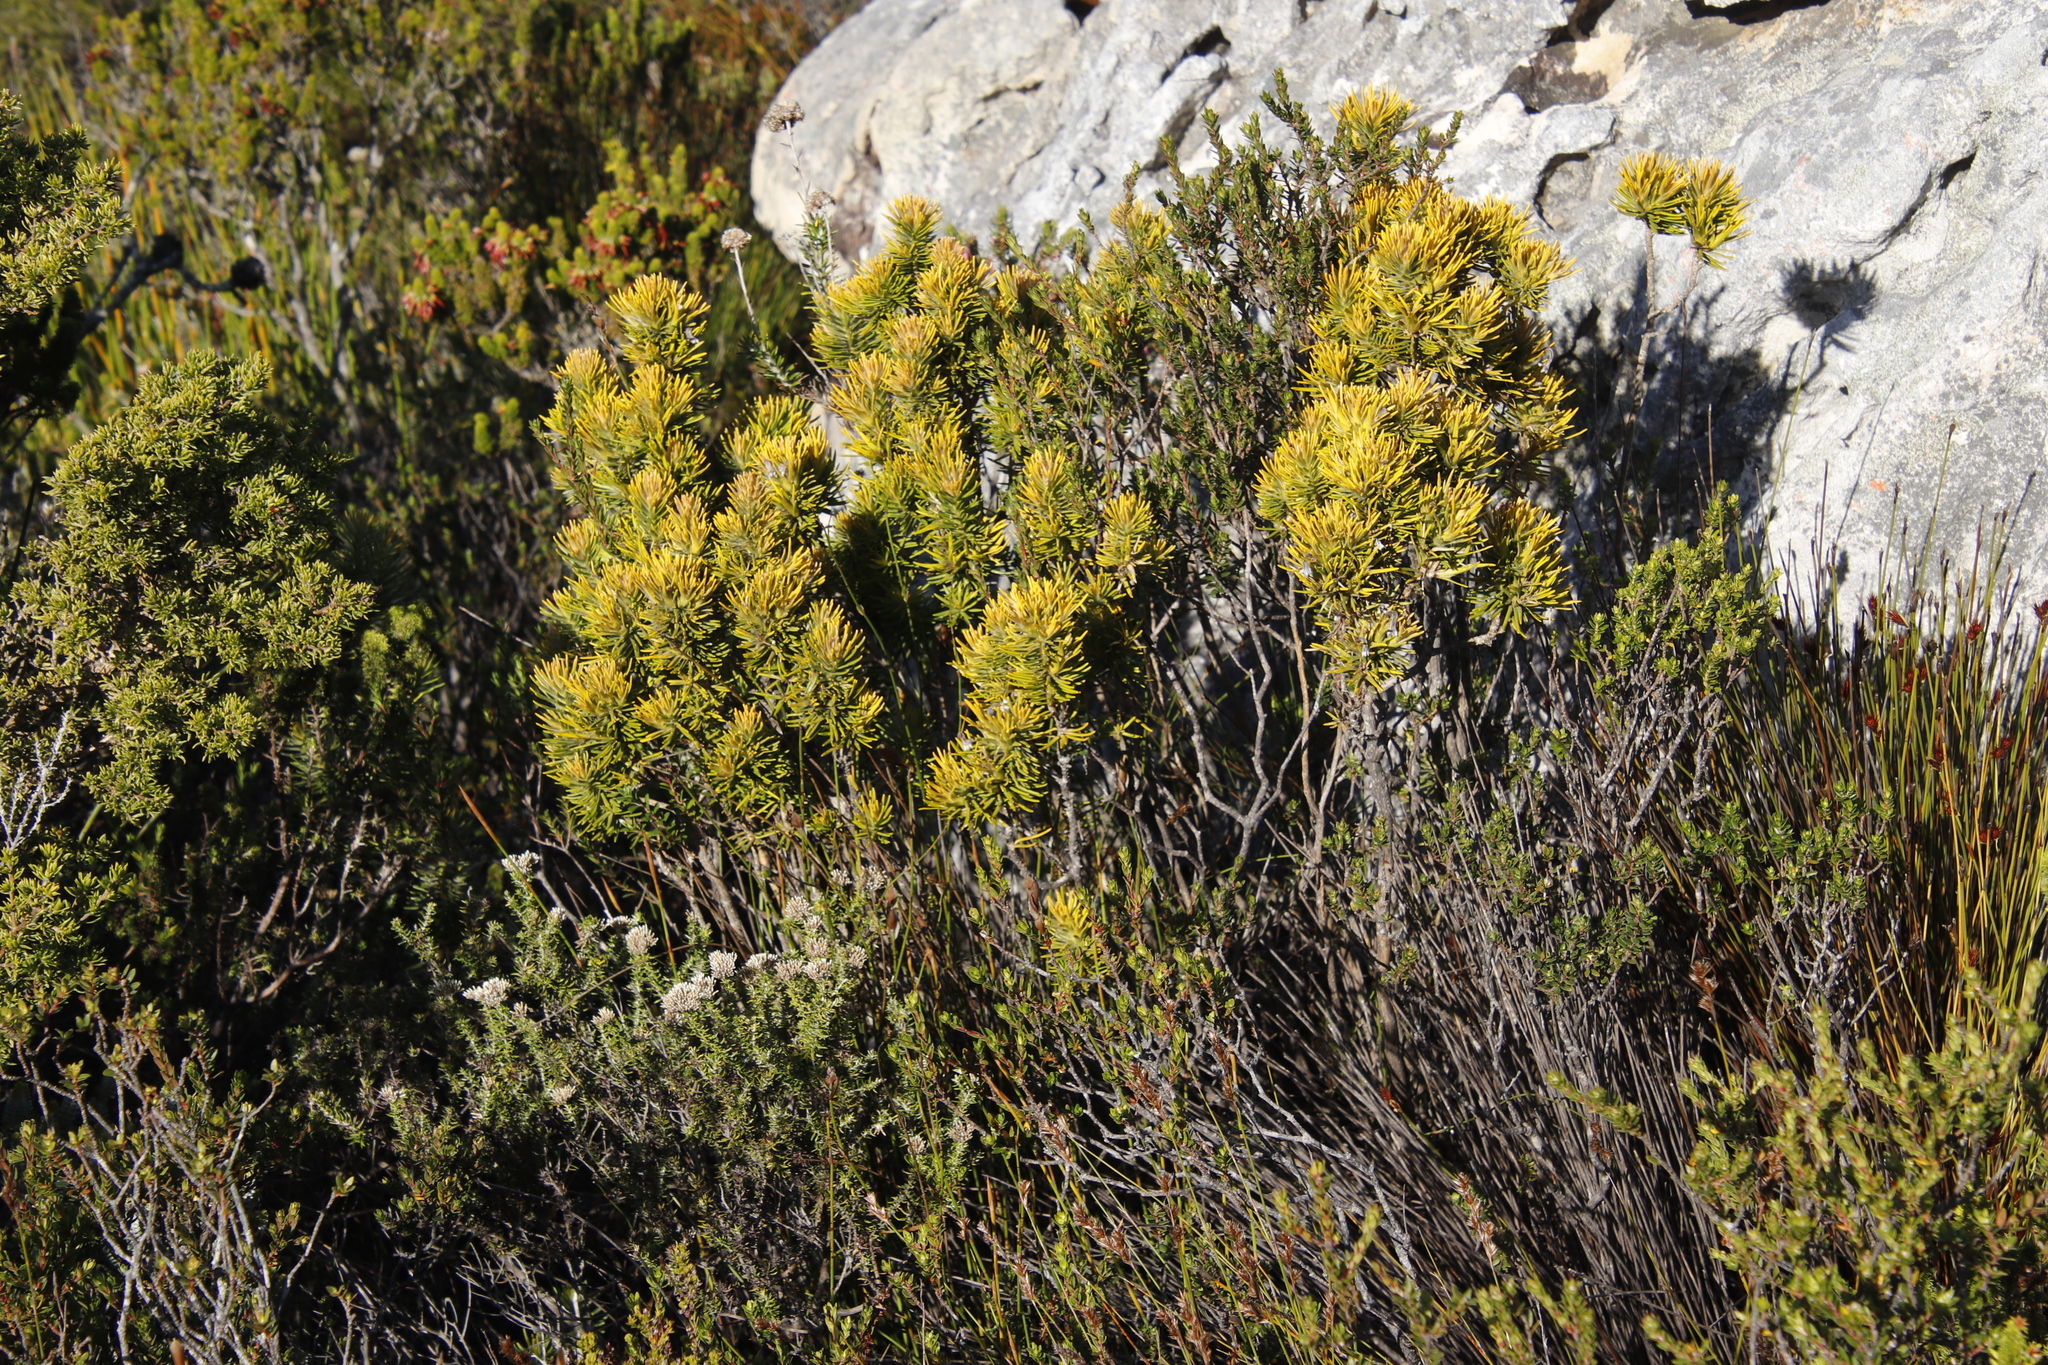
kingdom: Plantae
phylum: Tracheophyta
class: Magnoliopsida
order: Lamiales
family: Stilbaceae
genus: Retzia
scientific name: Retzia capensis
